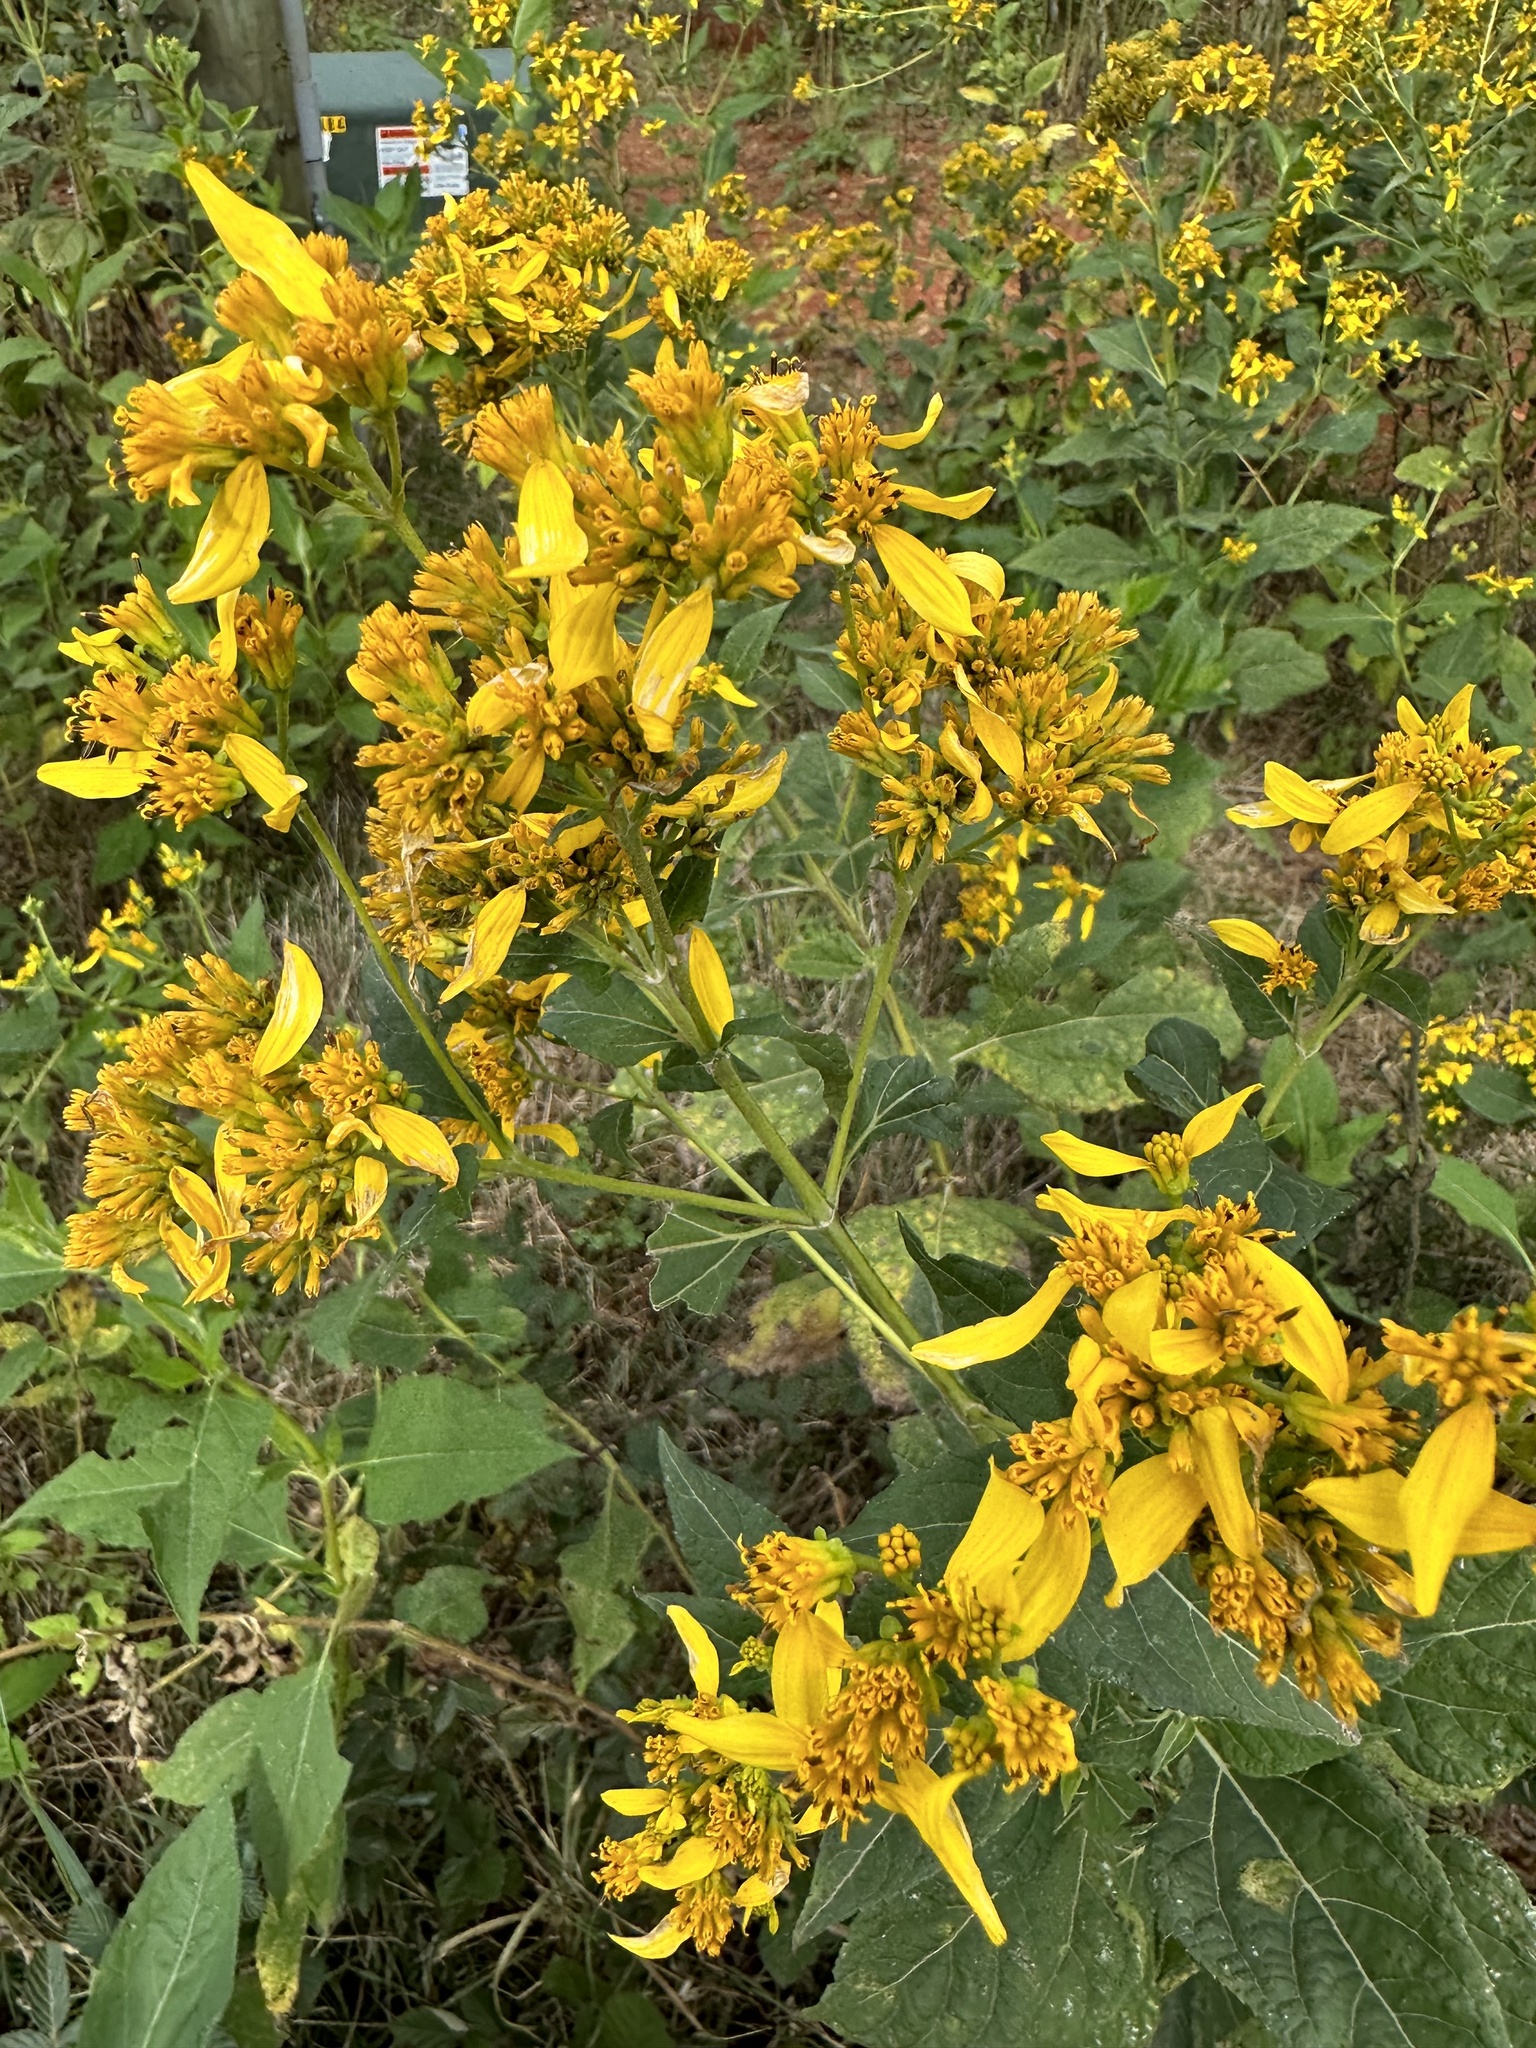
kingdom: Plantae
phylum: Tracheophyta
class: Magnoliopsida
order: Asterales
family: Asteraceae
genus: Verbesina
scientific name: Verbesina occidentalis
